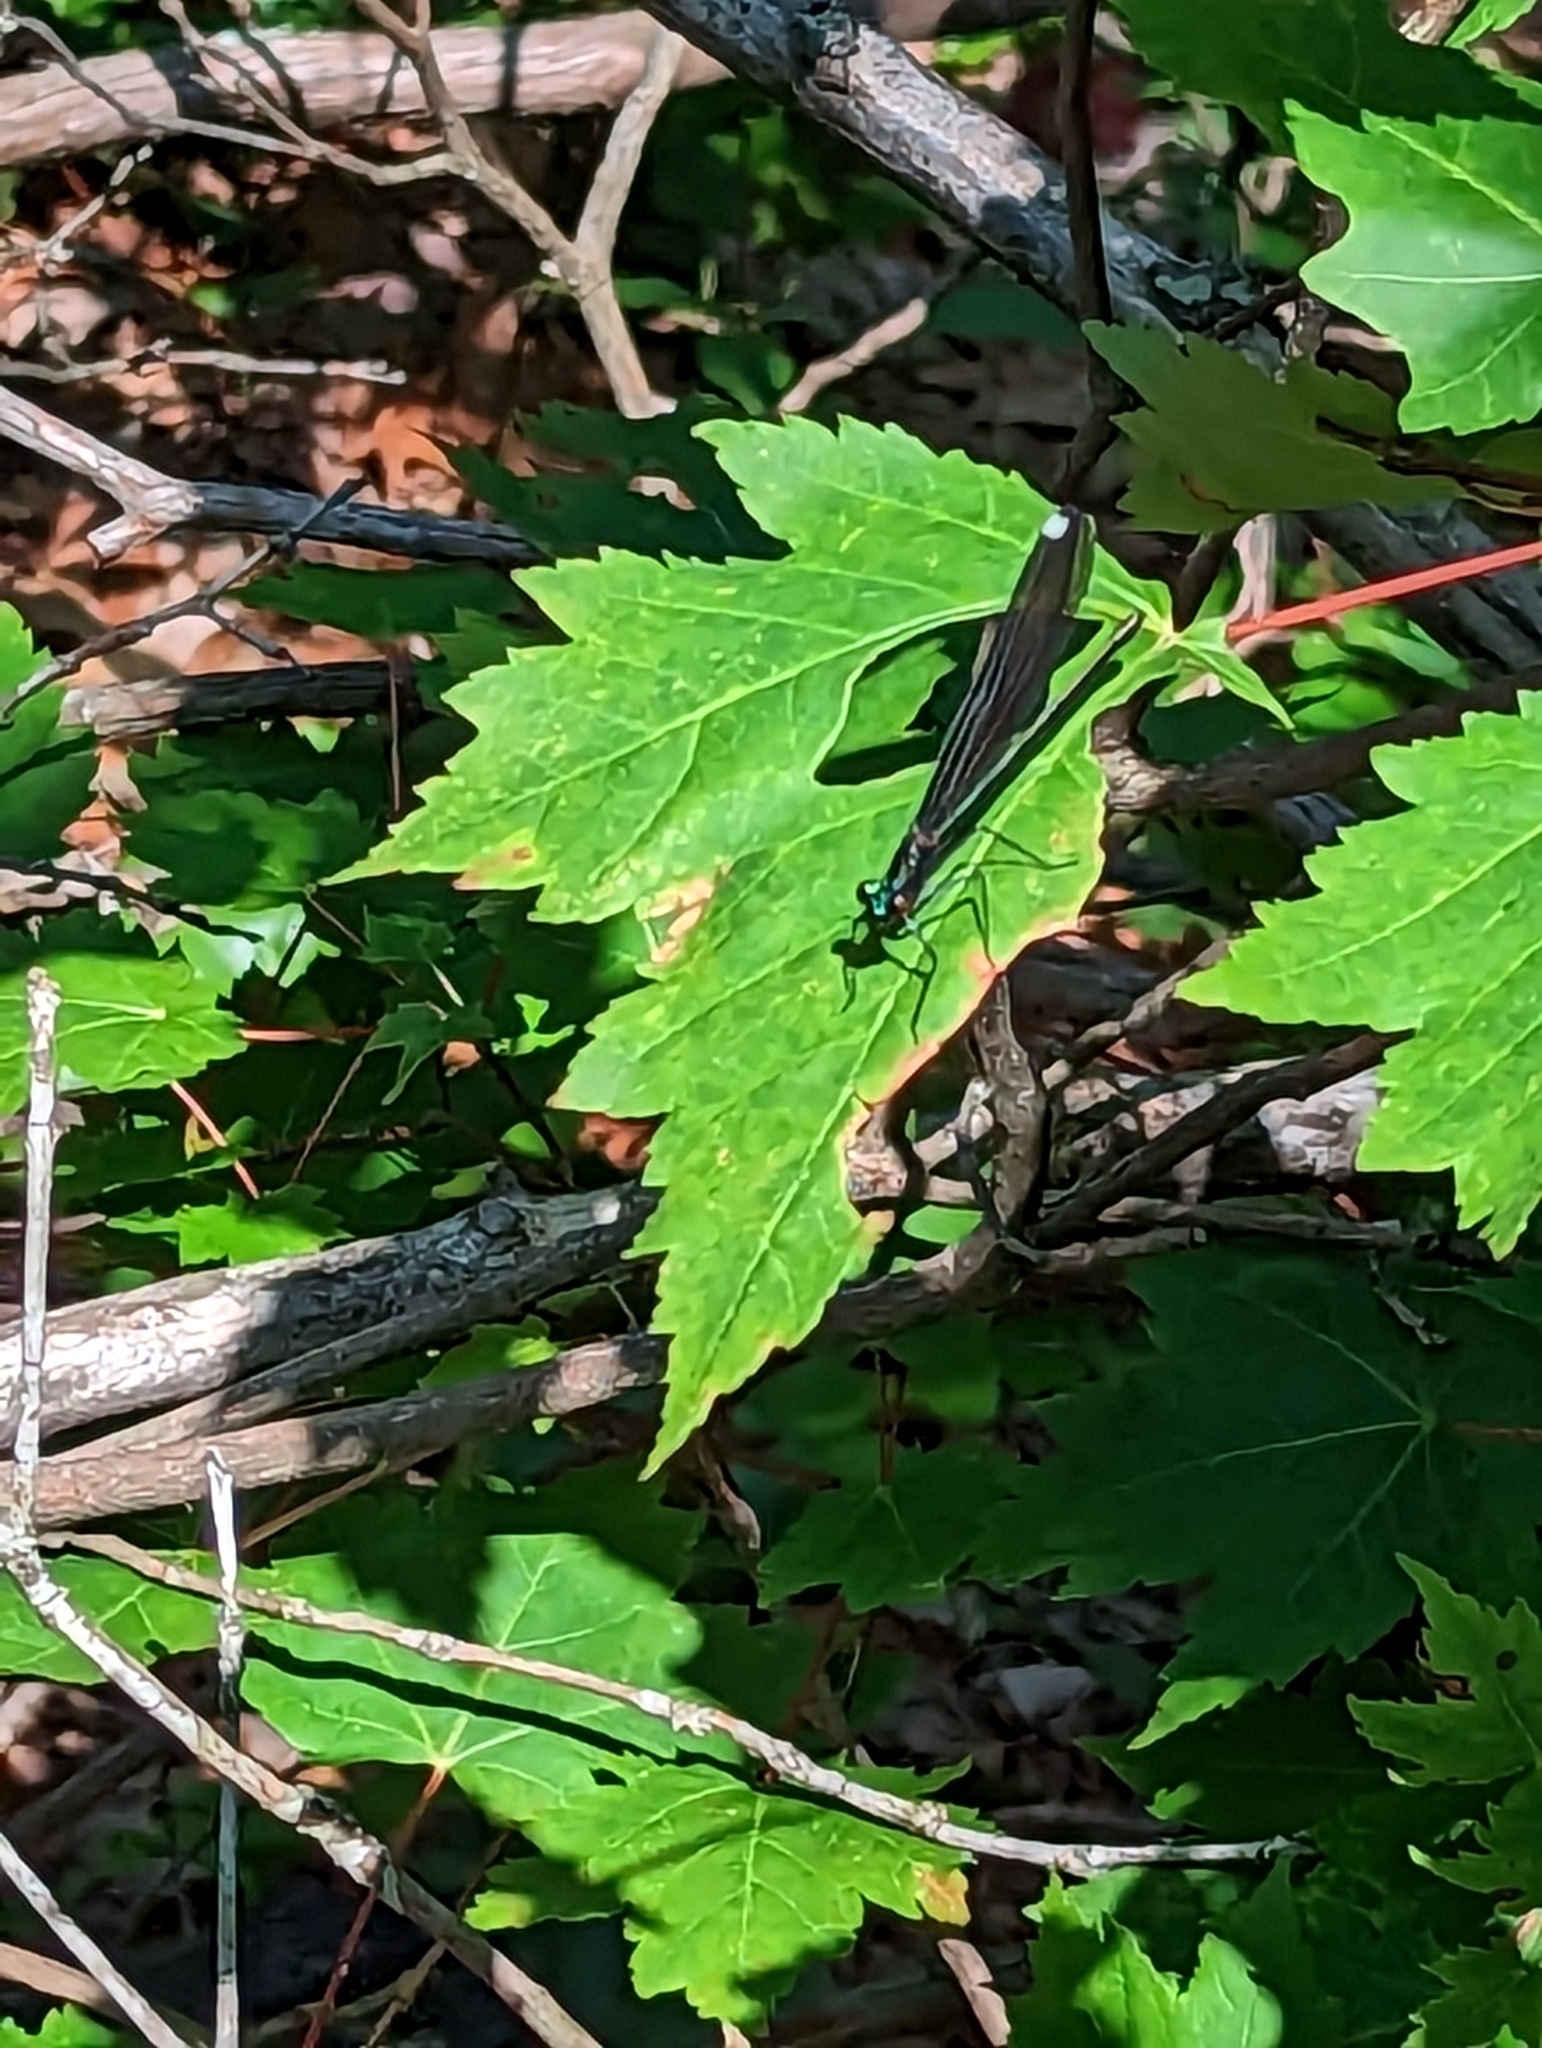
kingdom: Animalia
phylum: Arthropoda
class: Insecta
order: Odonata
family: Calopterygidae
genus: Calopteryx
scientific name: Calopteryx maculata
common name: Ebony jewelwing
